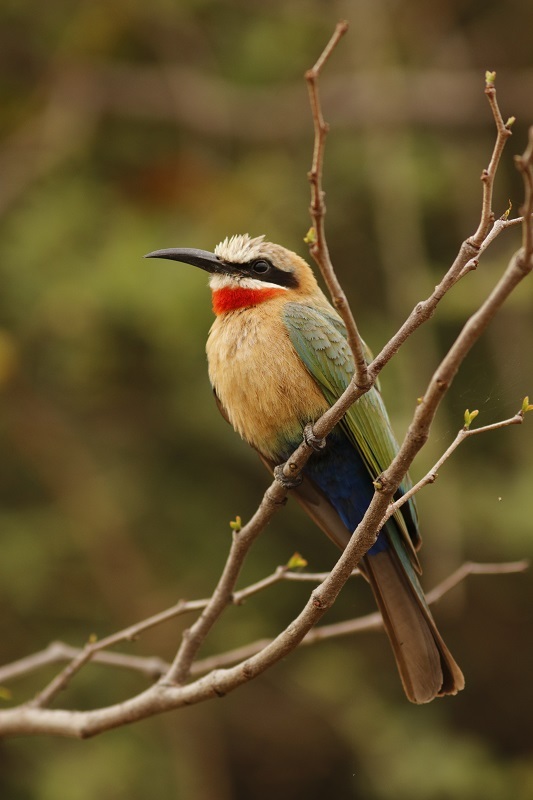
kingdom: Animalia
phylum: Chordata
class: Aves
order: Coraciiformes
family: Meropidae
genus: Merops
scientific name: Merops bullockoides
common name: White-fronted bee-eater
